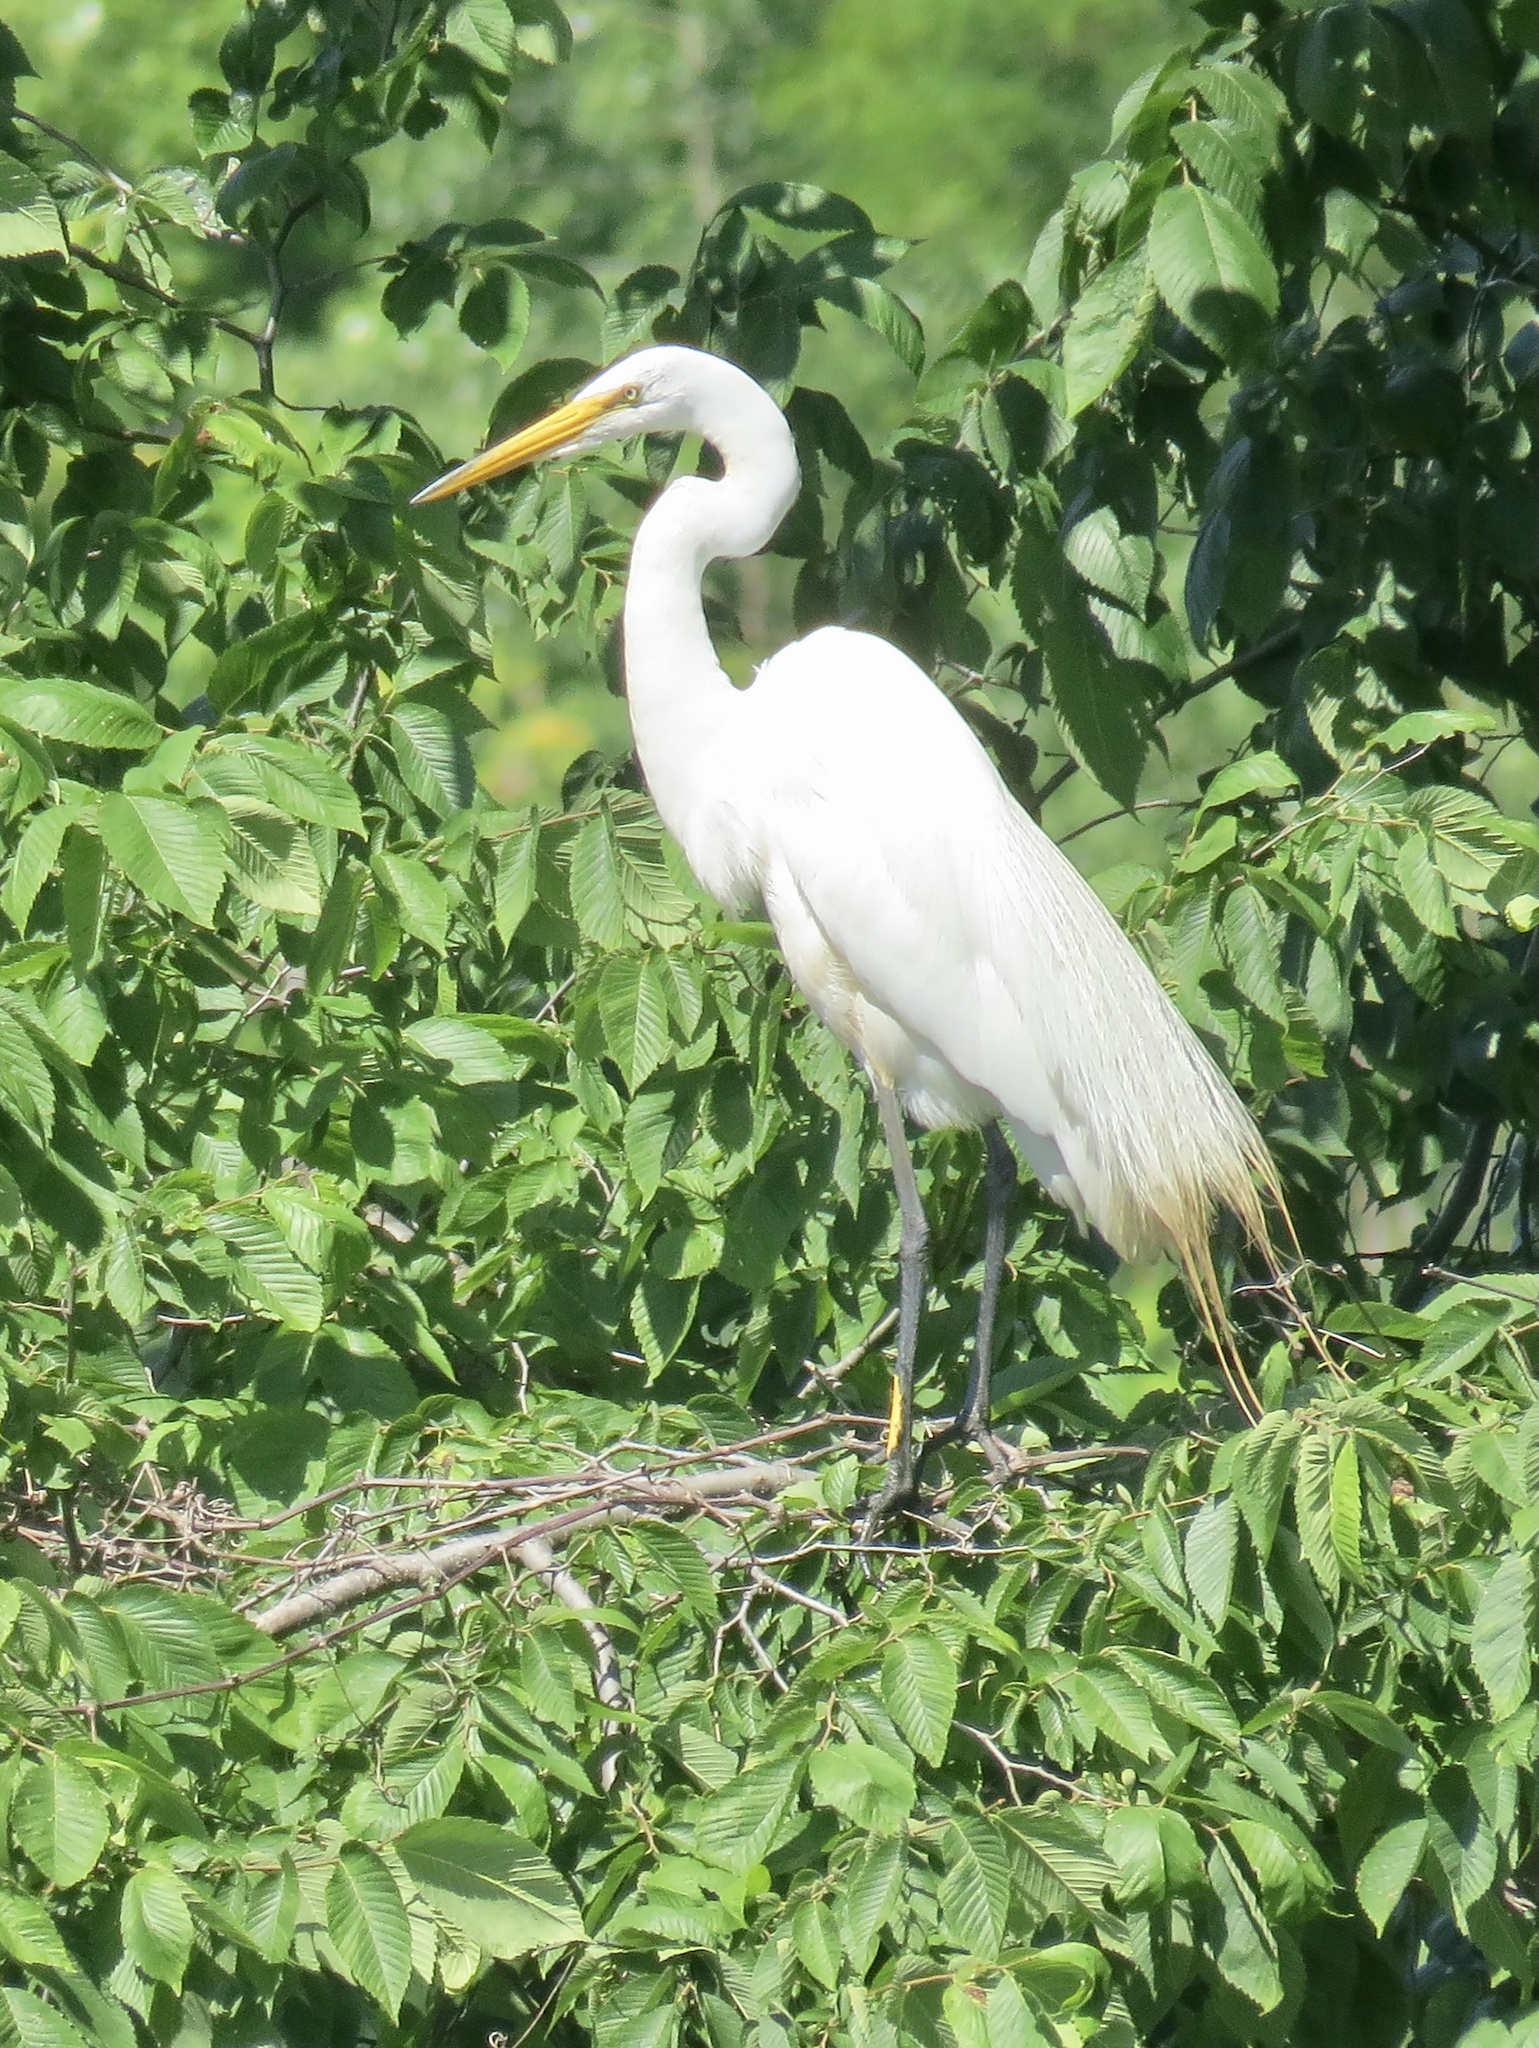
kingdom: Animalia
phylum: Chordata
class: Aves
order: Pelecaniformes
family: Ardeidae
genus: Ardea
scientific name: Ardea alba
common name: Great egret
